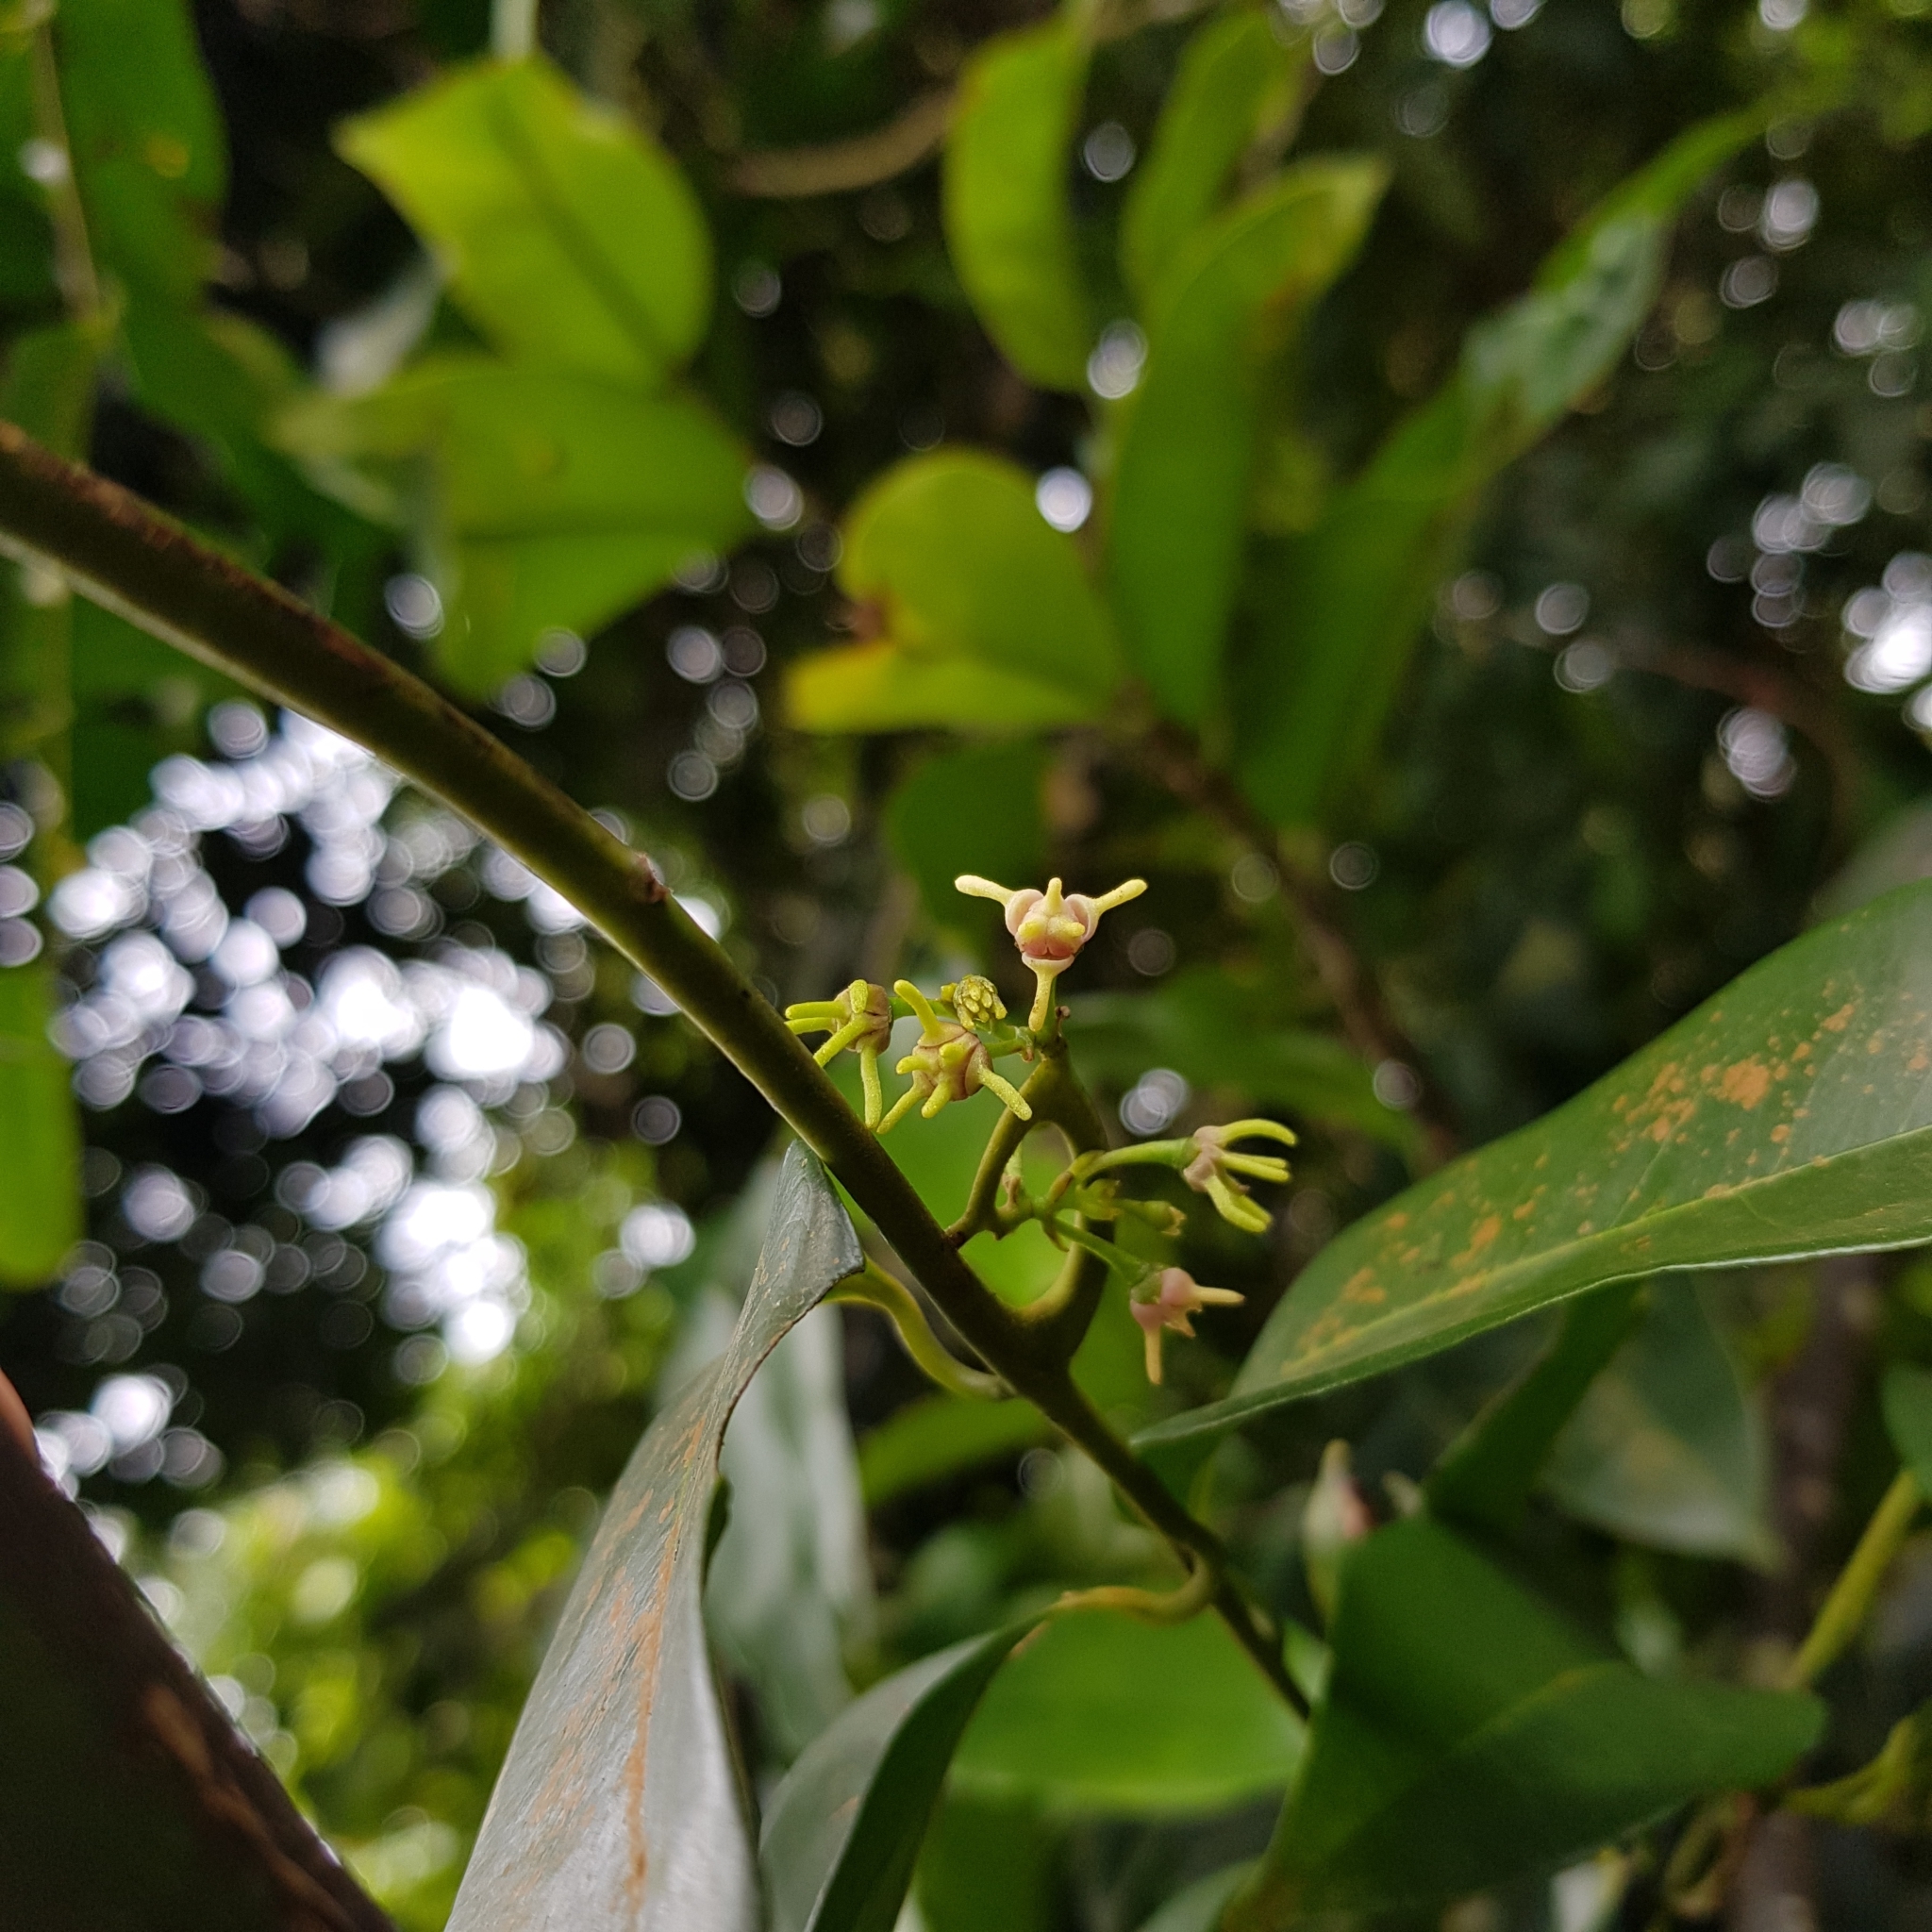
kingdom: Plantae
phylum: Tracheophyta
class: Magnoliopsida
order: Magnoliales
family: Annonaceae
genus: Artabotrys
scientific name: Artabotrys suaveolens
